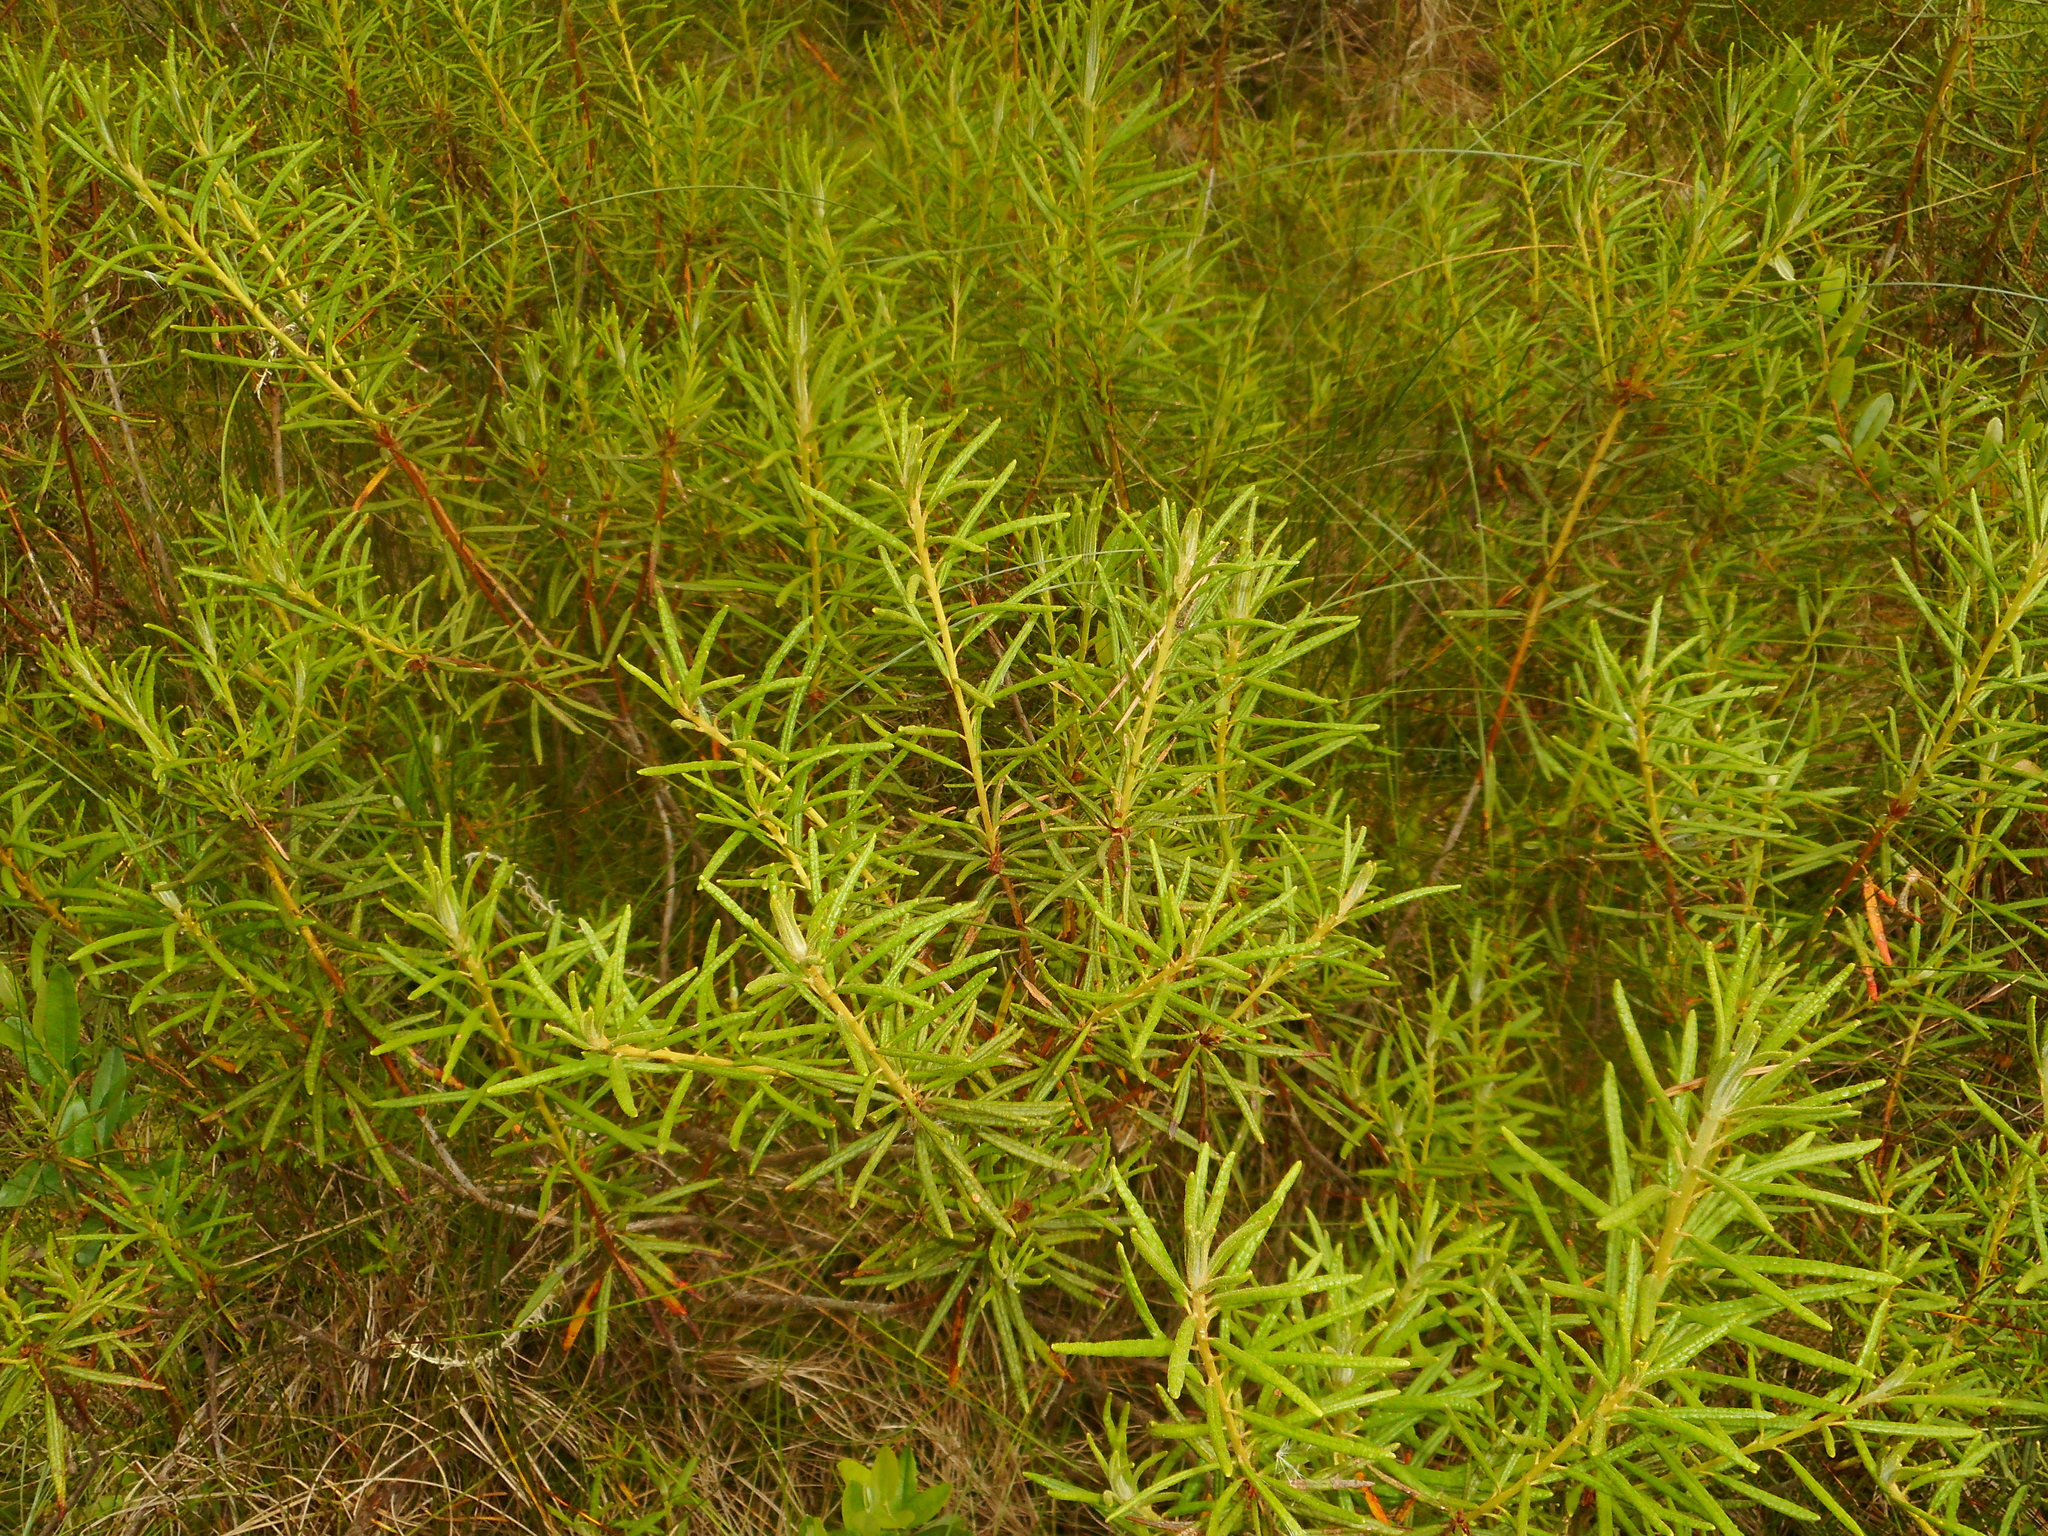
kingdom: Plantae
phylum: Tracheophyta
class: Magnoliopsida
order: Ericales
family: Ericaceae
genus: Rhododendron
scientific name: Rhododendron tomentosum
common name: Marsh labrador tea
